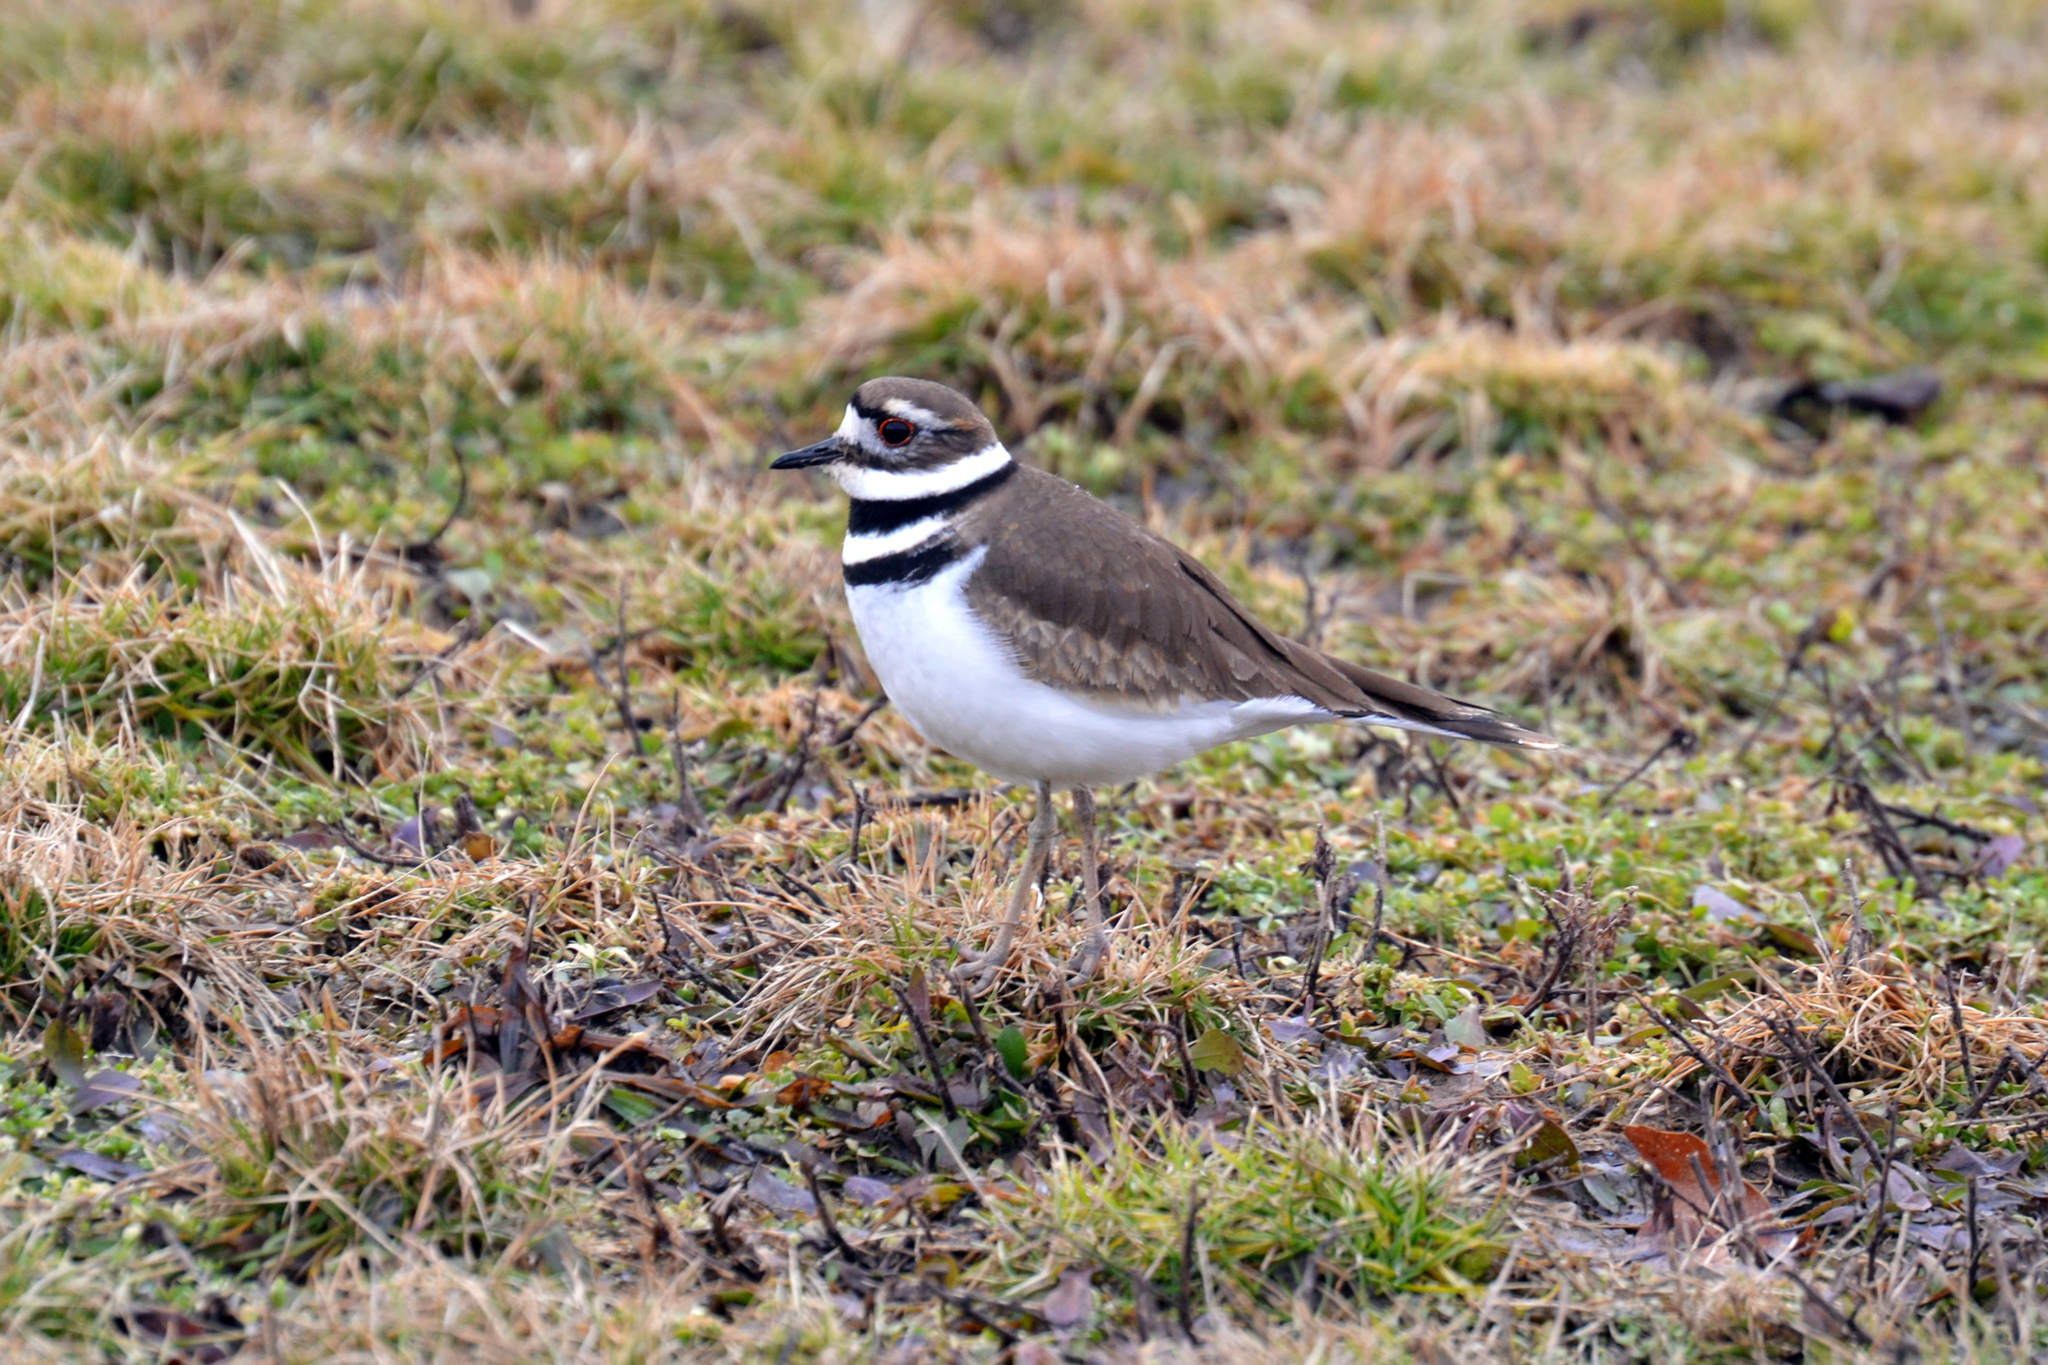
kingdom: Animalia
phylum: Chordata
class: Aves
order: Charadriiformes
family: Charadriidae
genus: Charadrius
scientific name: Charadrius vociferus
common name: Killdeer
